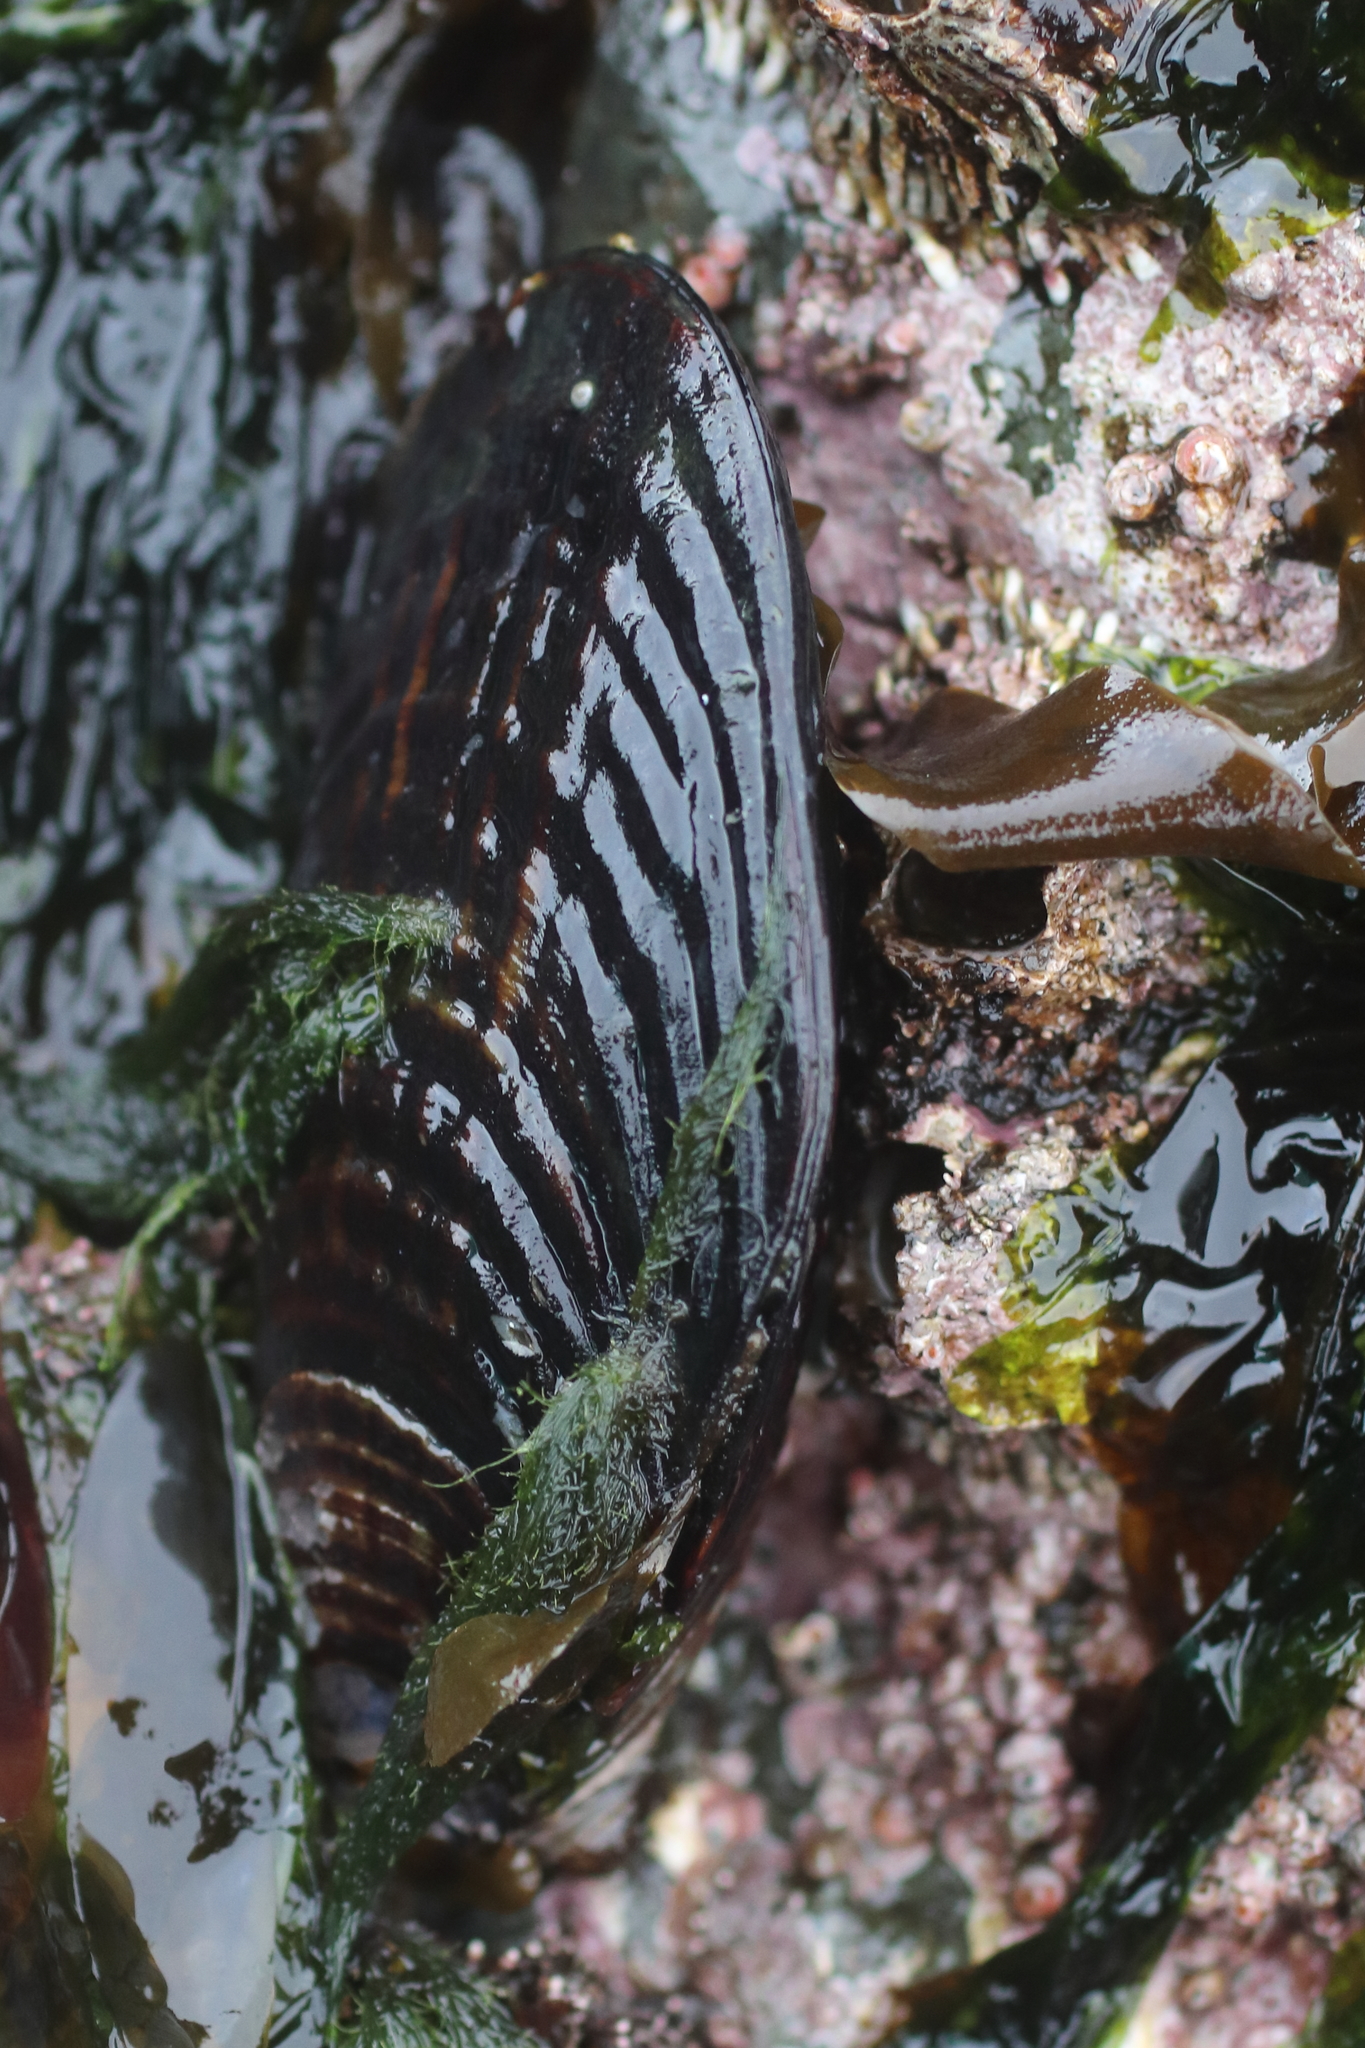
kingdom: Animalia
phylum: Mollusca
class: Bivalvia
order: Mytilida
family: Mytilidae
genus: Mytilus
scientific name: Mytilus californianus
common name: California mussel
